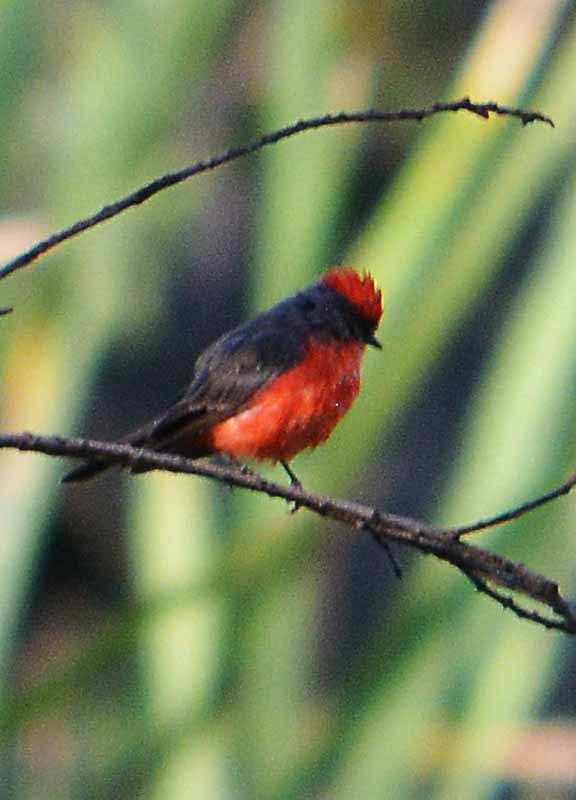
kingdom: Animalia
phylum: Chordata
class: Aves
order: Passeriformes
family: Tyrannidae
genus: Pyrocephalus
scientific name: Pyrocephalus rubinus
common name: Vermilion flycatcher
